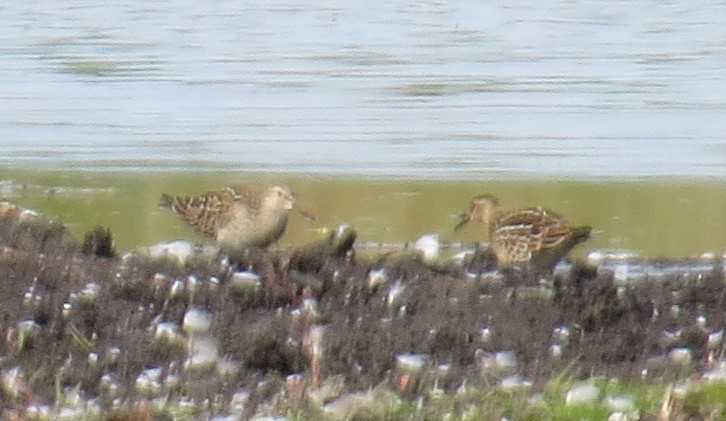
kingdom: Animalia
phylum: Chordata
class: Aves
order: Charadriiformes
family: Scolopacidae
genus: Calidris
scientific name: Calidris melanotos
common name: Pectoral sandpiper
